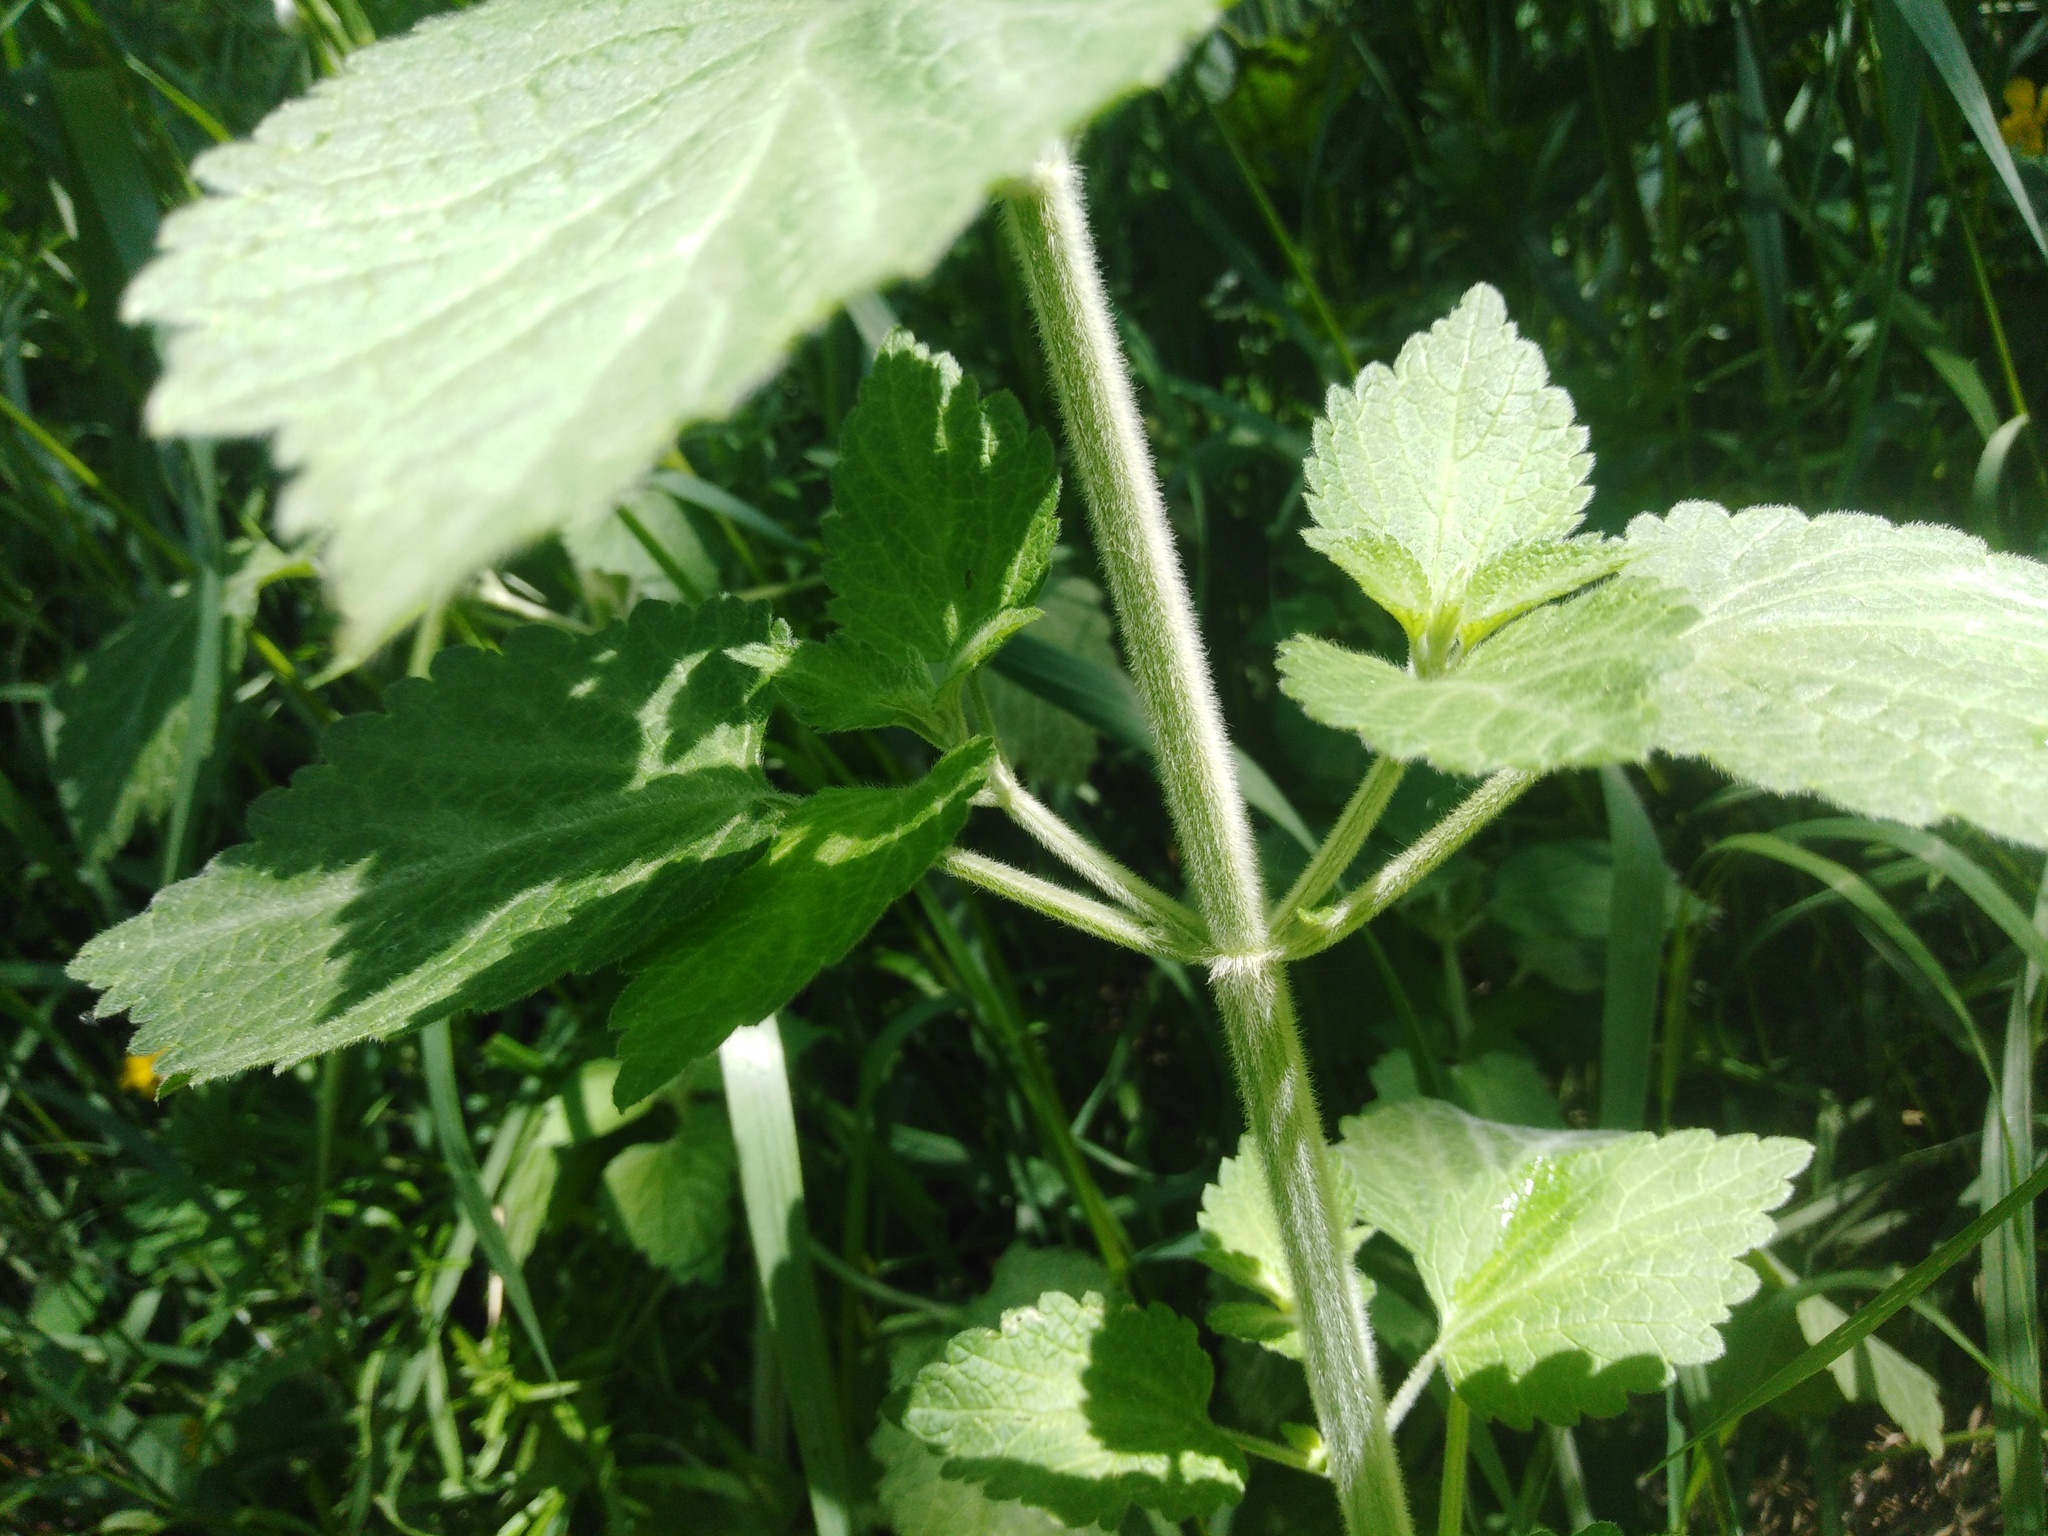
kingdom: Plantae
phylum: Tracheophyta
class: Magnoliopsida
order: Lamiales
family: Lamiaceae
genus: Ballota
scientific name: Ballota nigra
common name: Black horehound
